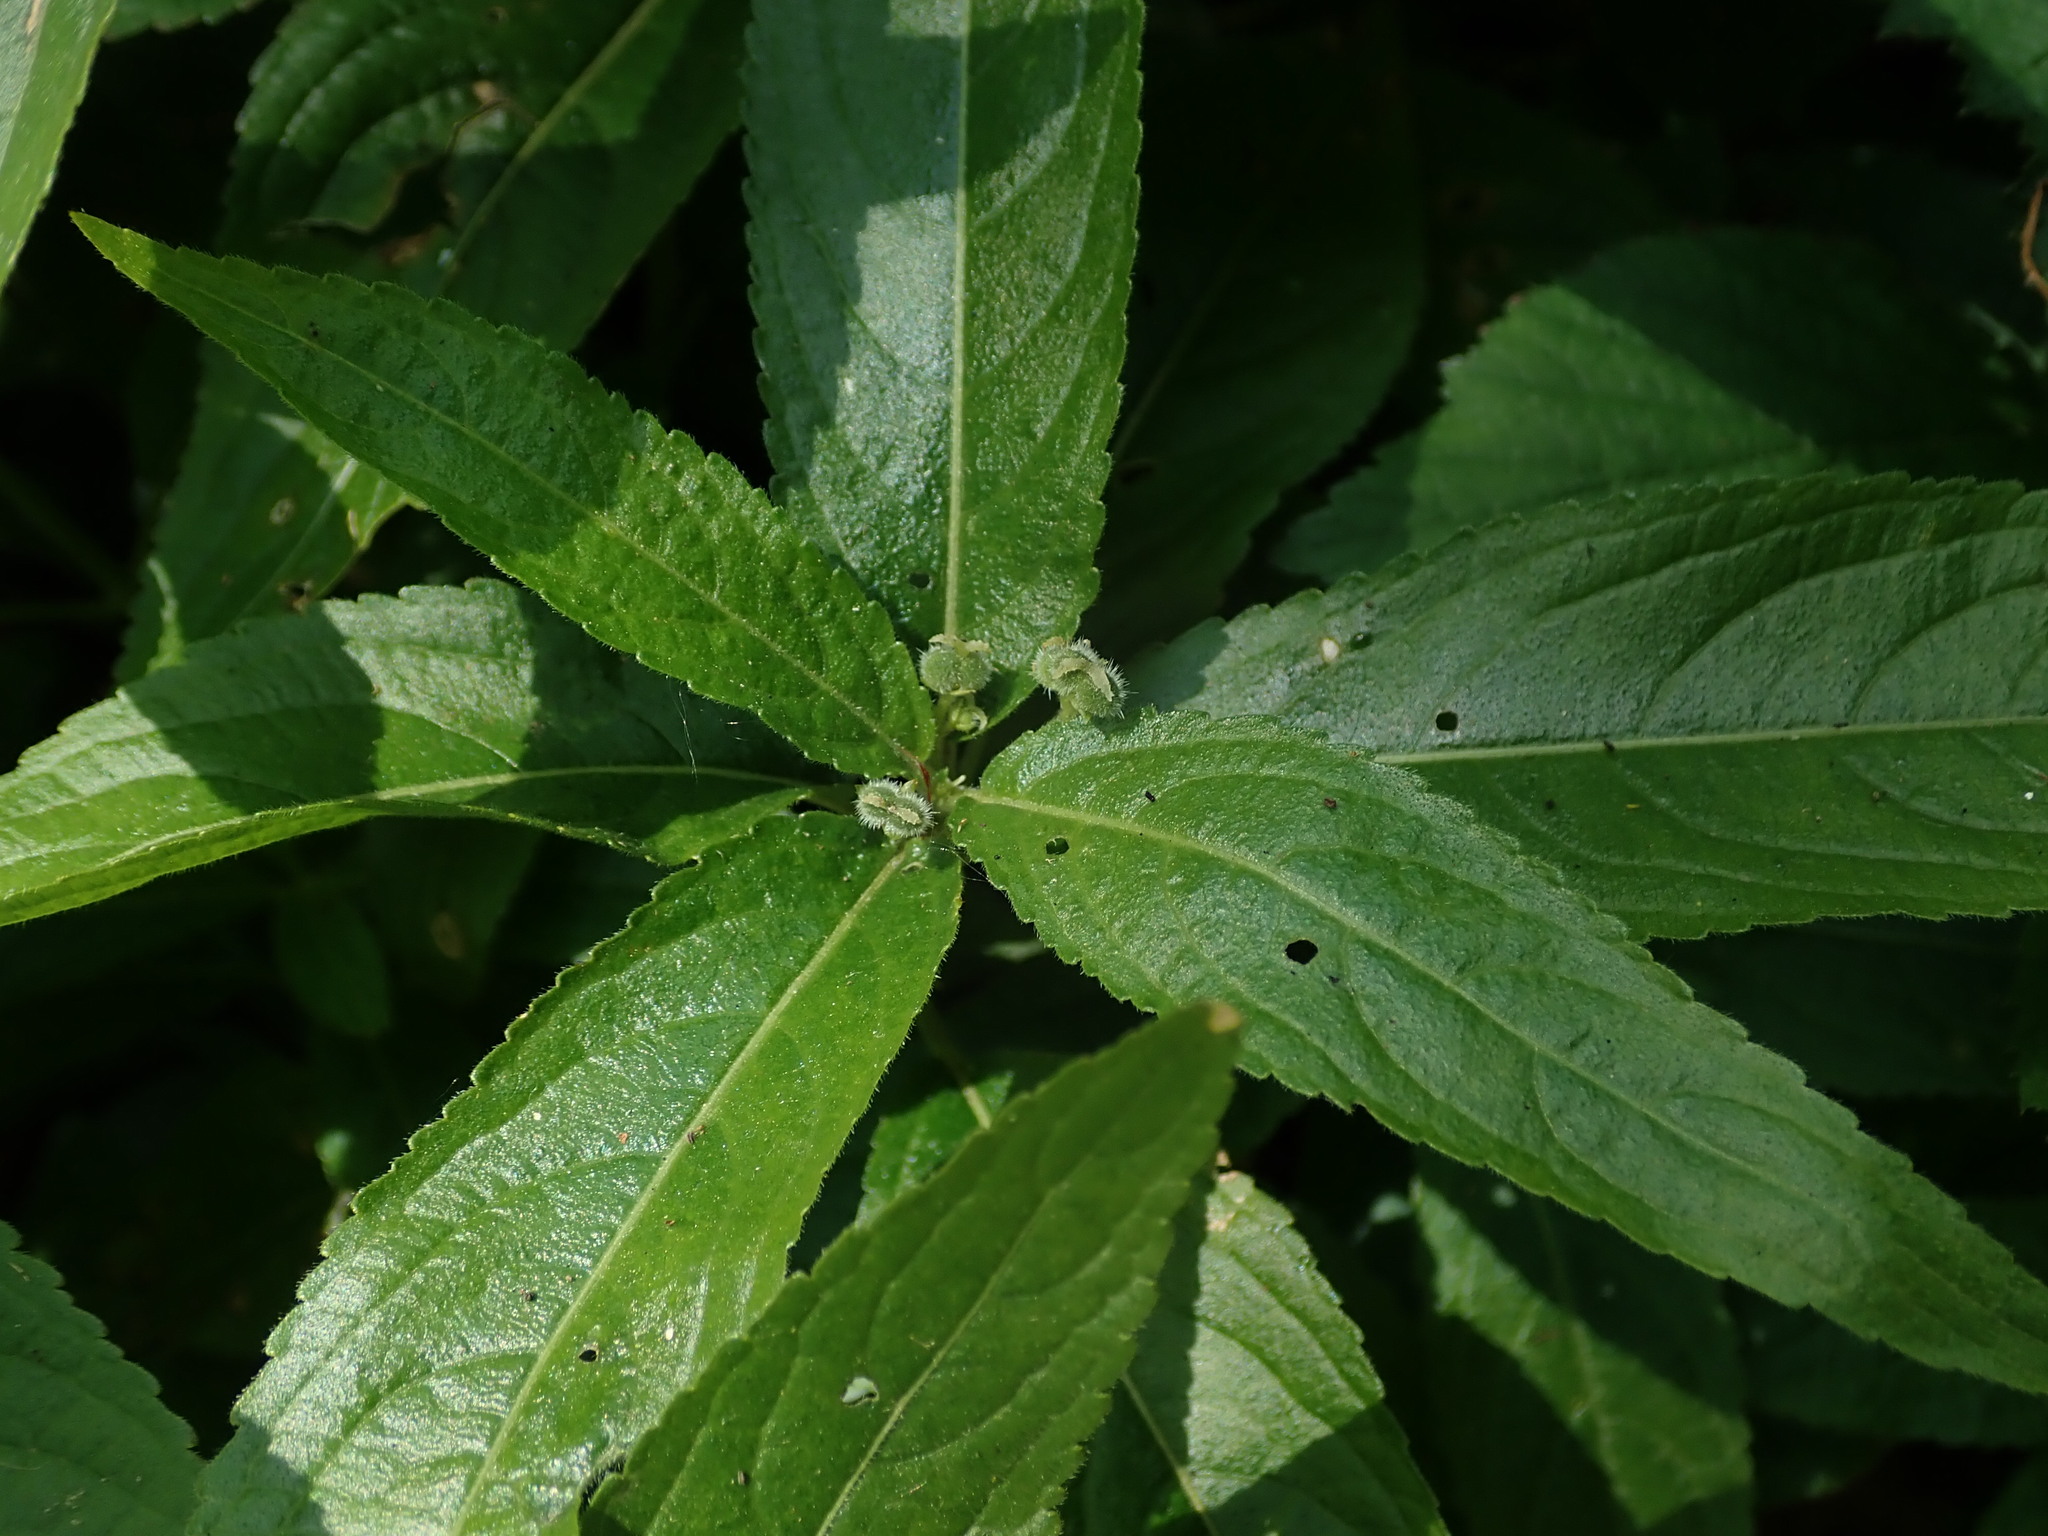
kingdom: Plantae
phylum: Tracheophyta
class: Magnoliopsida
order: Malpighiales
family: Euphorbiaceae
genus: Mercurialis
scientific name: Mercurialis perennis
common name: Dog mercury
